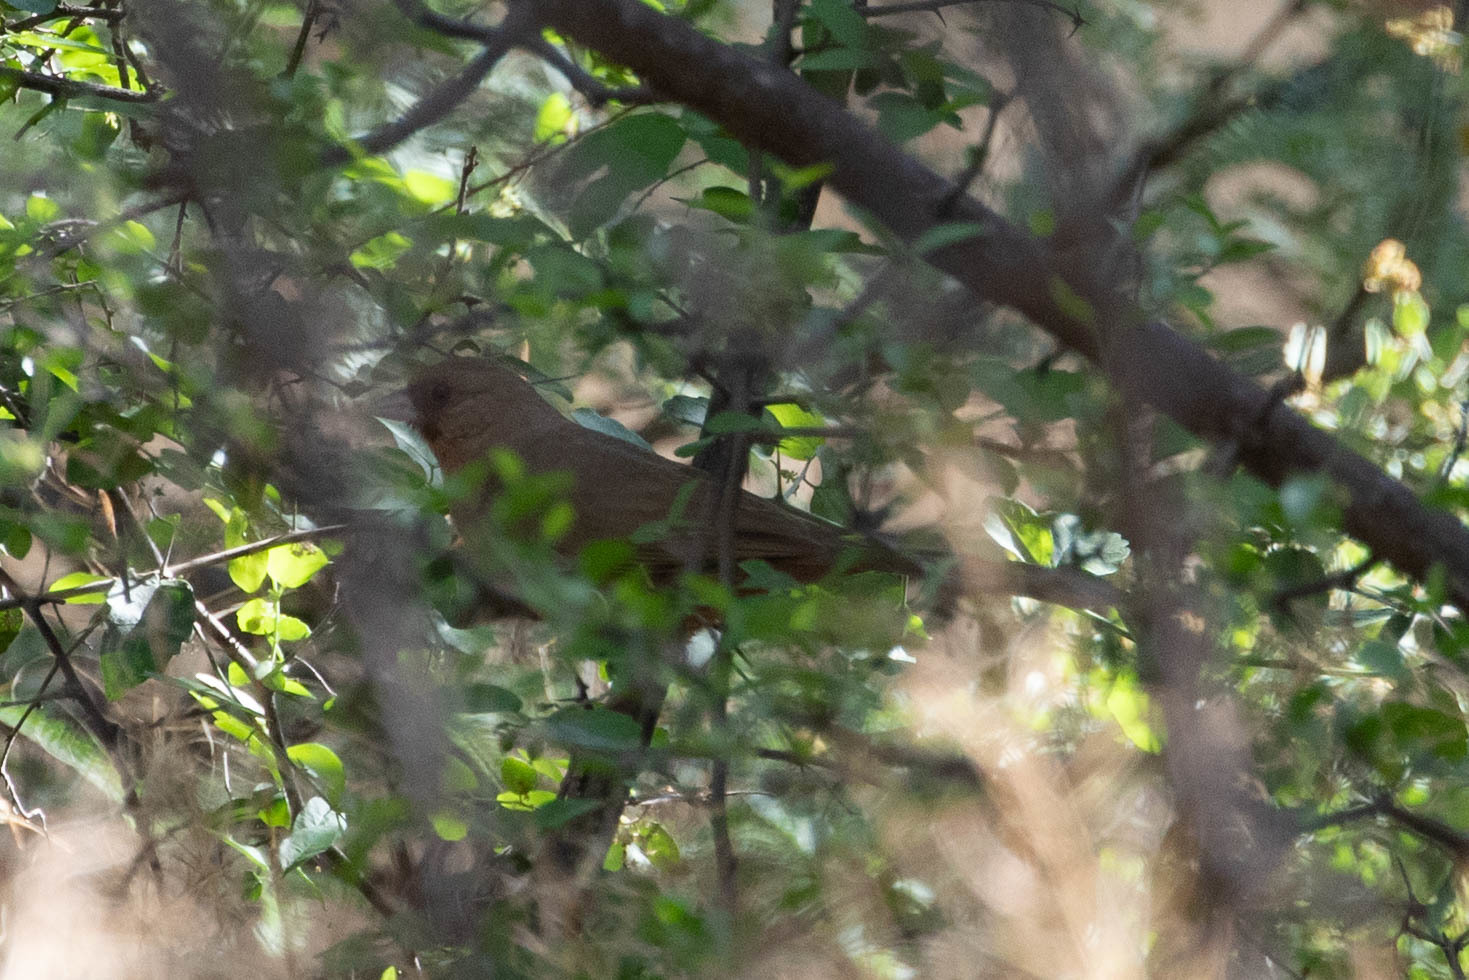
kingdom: Animalia
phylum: Chordata
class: Aves
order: Passeriformes
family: Passerellidae
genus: Melozone
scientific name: Melozone aberti
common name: Abert's towhee
